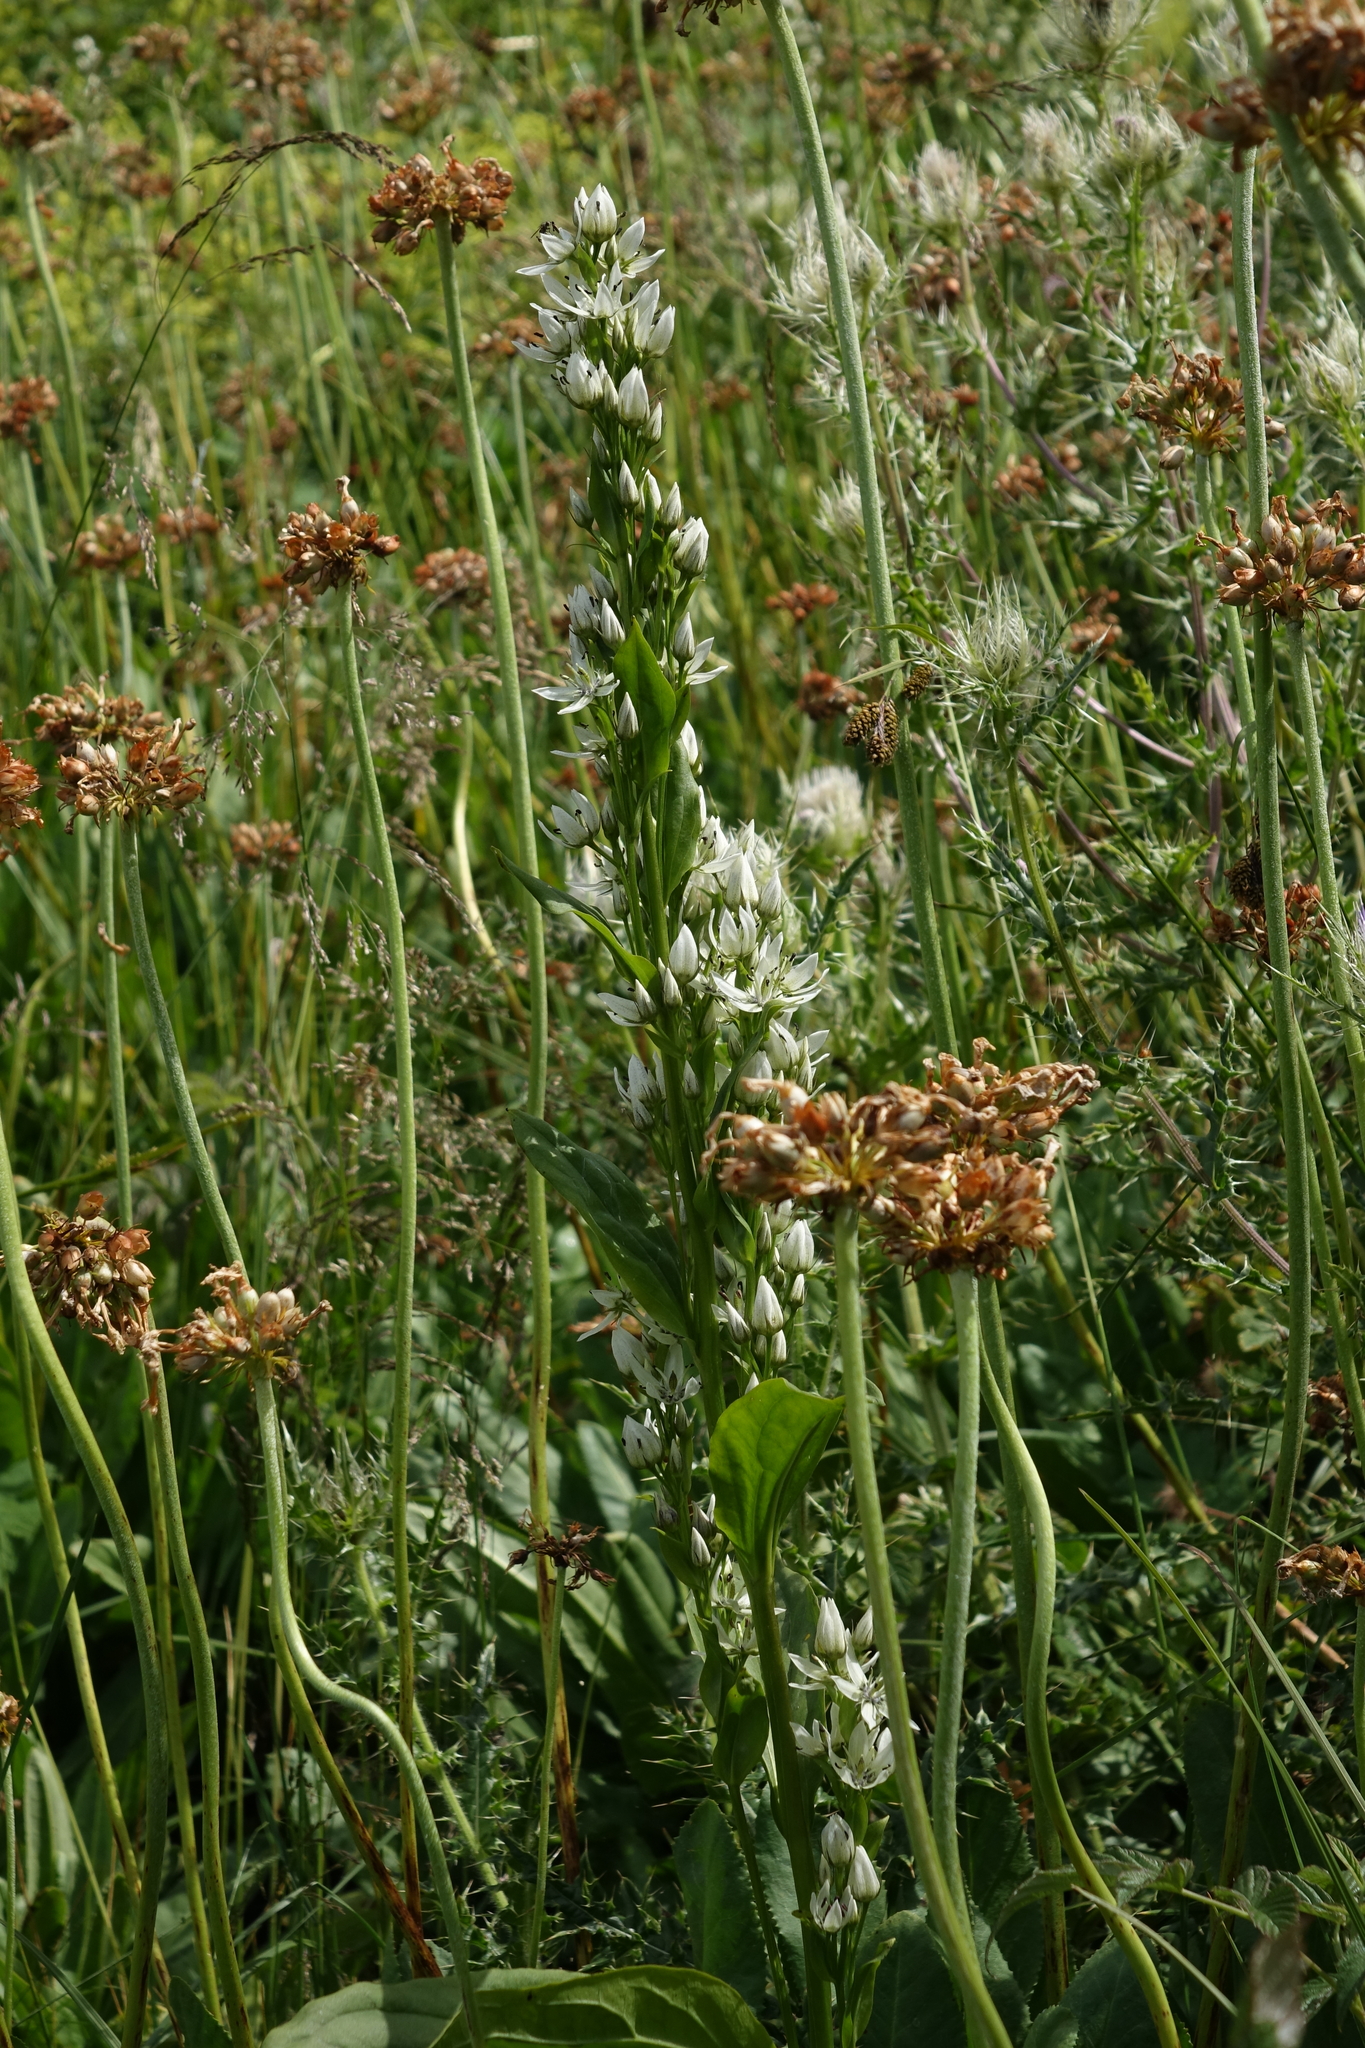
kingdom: Plantae
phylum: Tracheophyta
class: Magnoliopsida
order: Gentianales
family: Gentianaceae
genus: Swertia
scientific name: Swertia iberica
